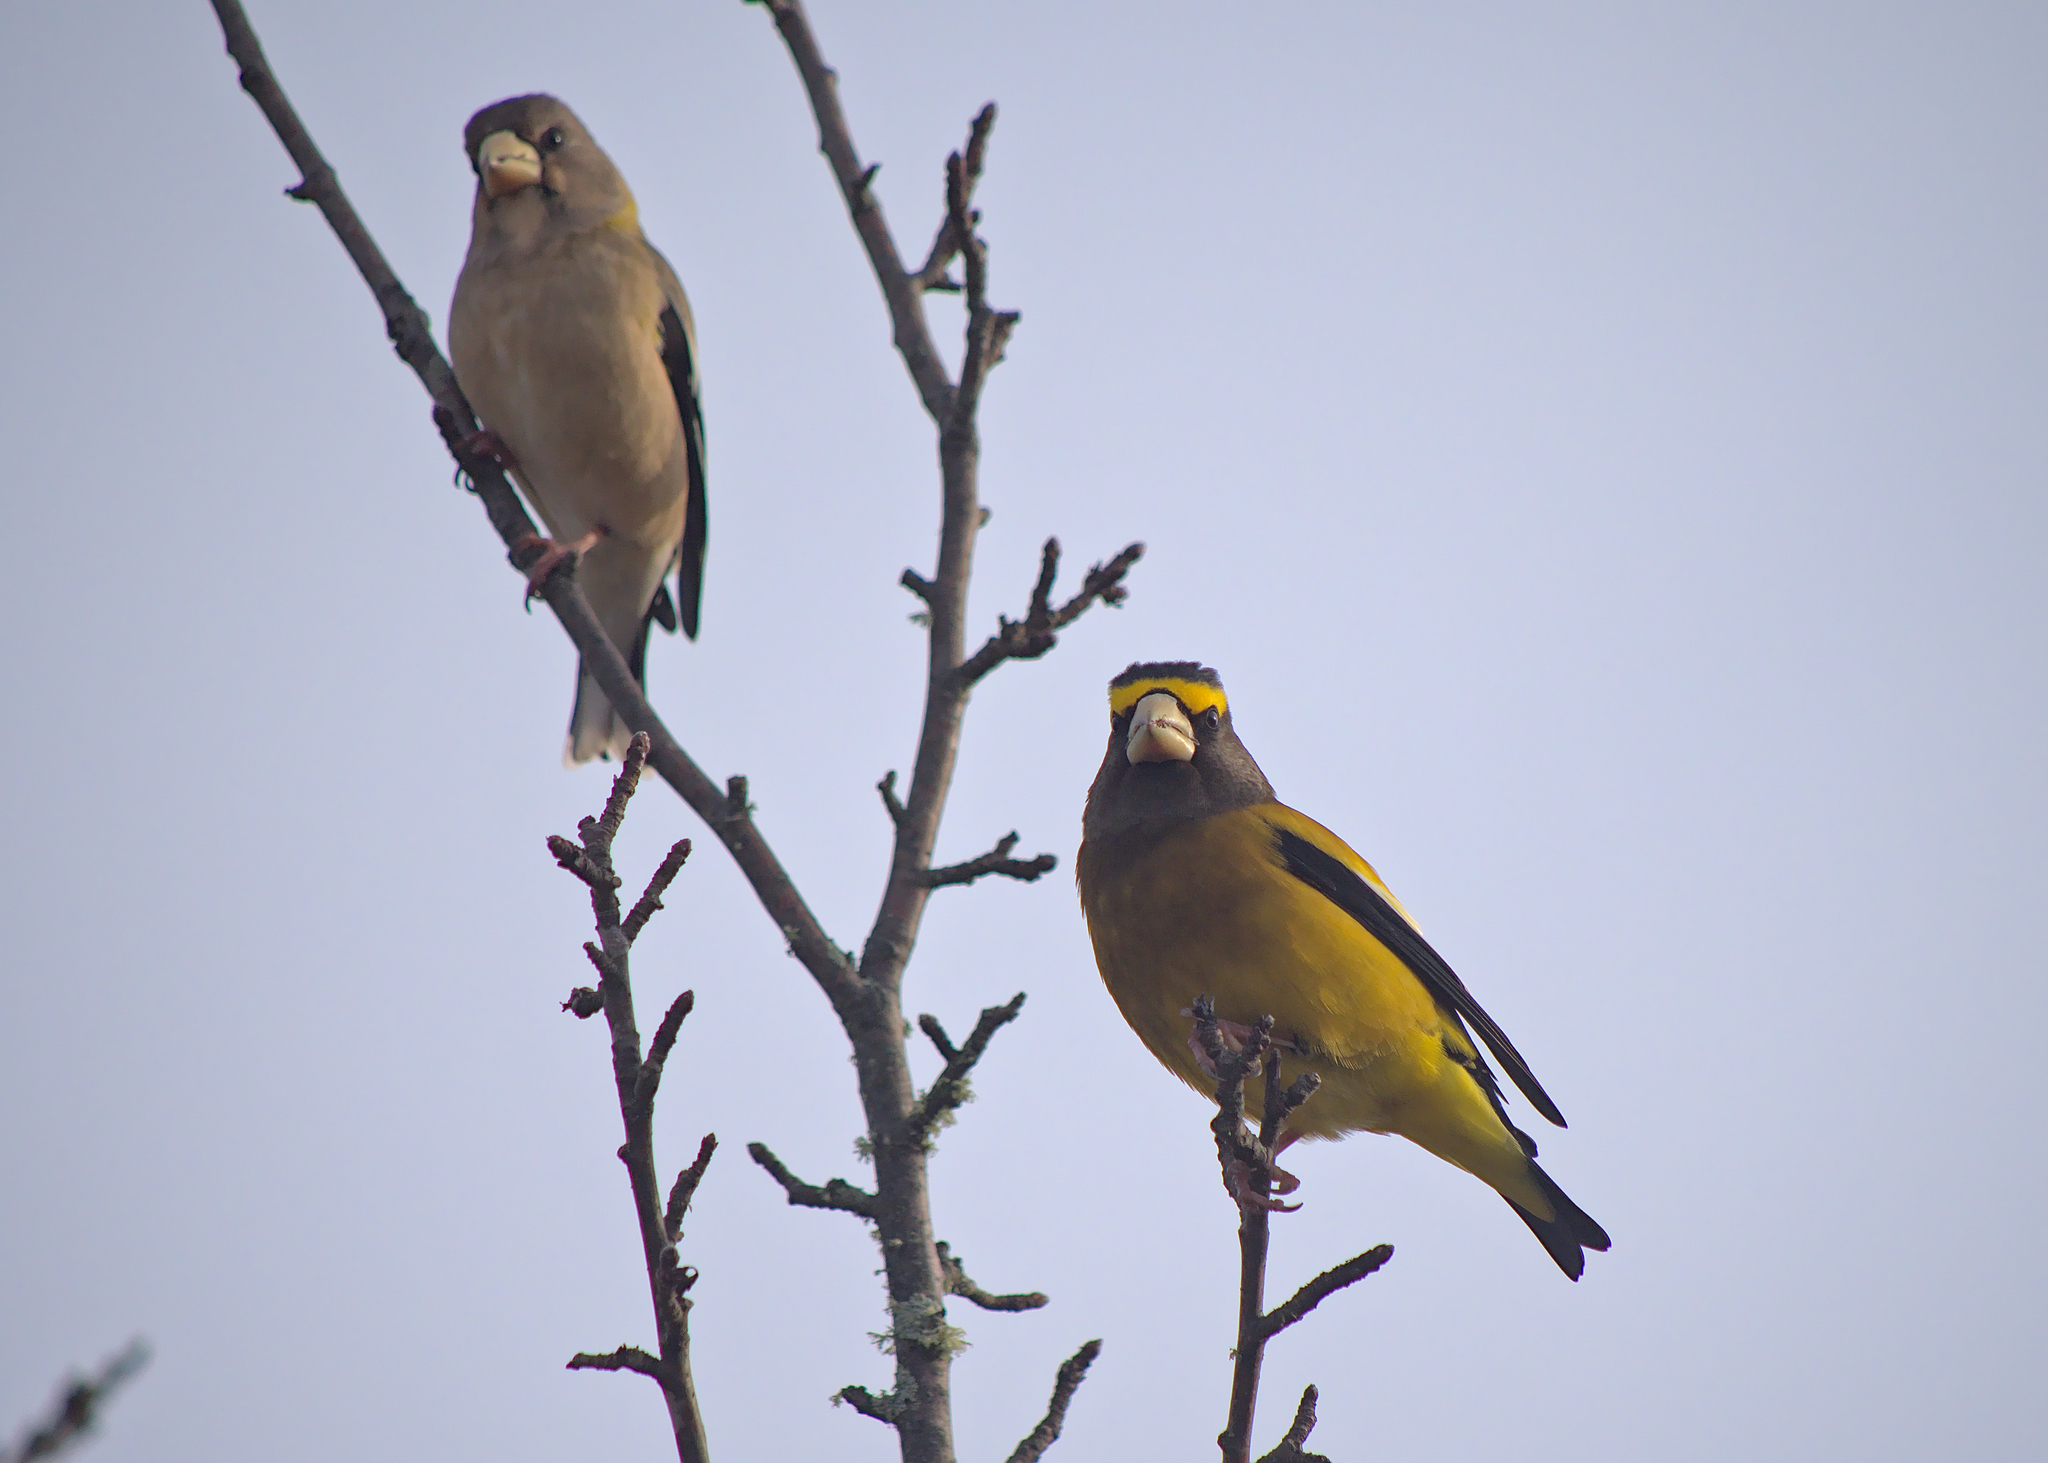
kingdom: Animalia
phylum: Chordata
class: Aves
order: Passeriformes
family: Fringillidae
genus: Hesperiphona
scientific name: Hesperiphona vespertina
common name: Evening grosbeak
